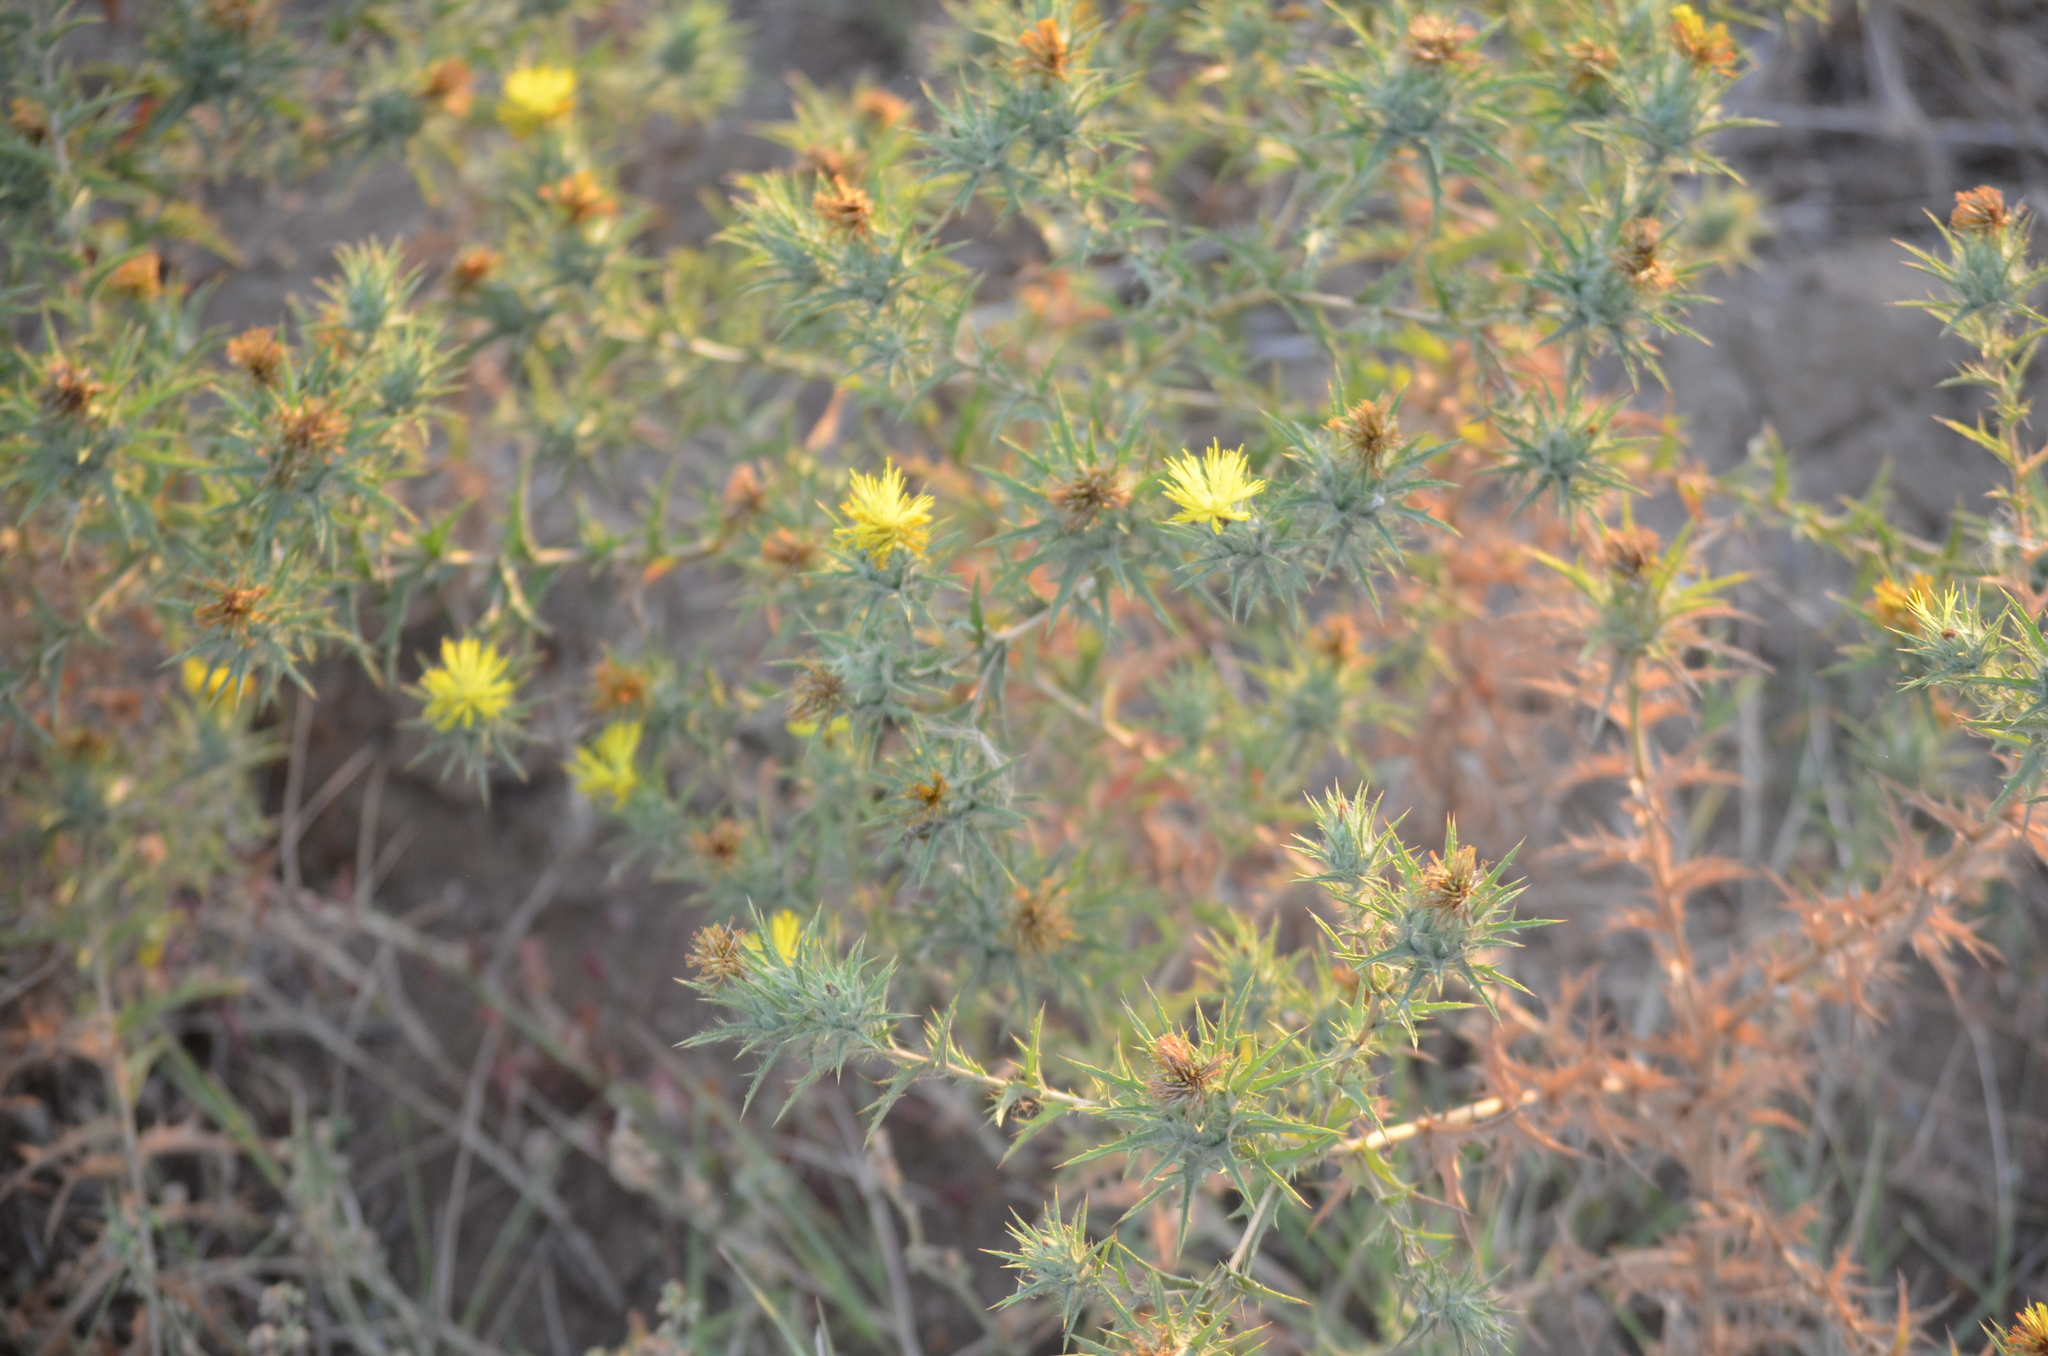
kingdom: Plantae
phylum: Tracheophyta
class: Magnoliopsida
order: Asterales
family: Asteraceae
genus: Carthamus
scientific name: Carthamus lanatus
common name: Downy safflower
